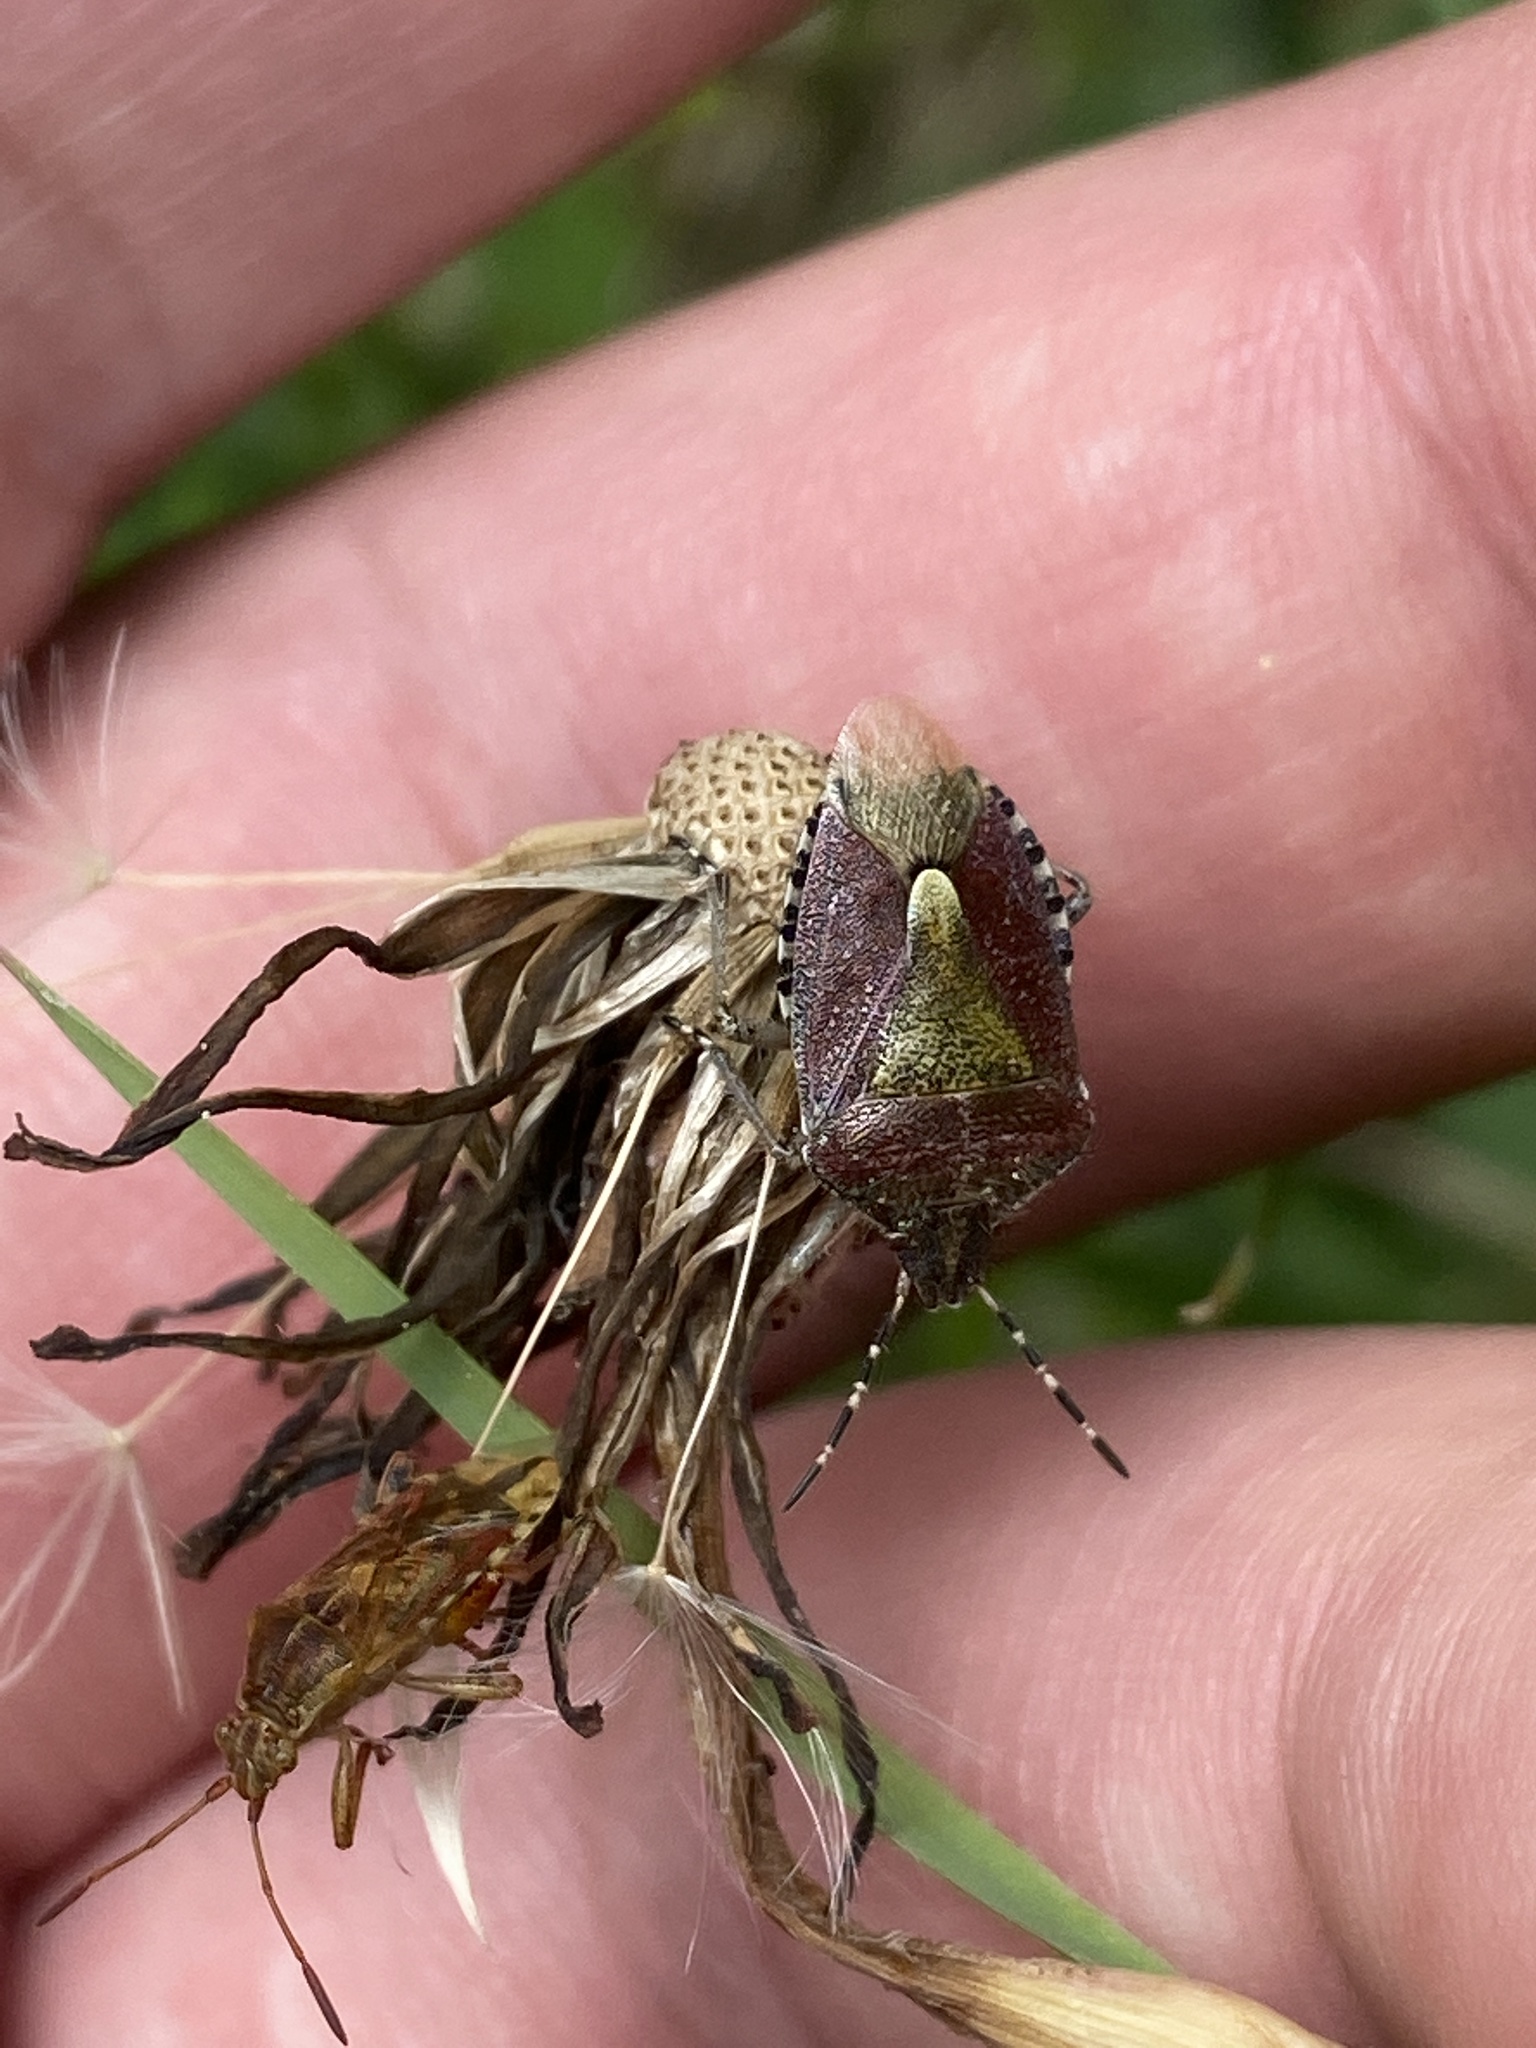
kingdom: Animalia
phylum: Arthropoda
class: Insecta
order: Hemiptera
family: Pentatomidae
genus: Dolycoris
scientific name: Dolycoris baccarum
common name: Sloe bug
